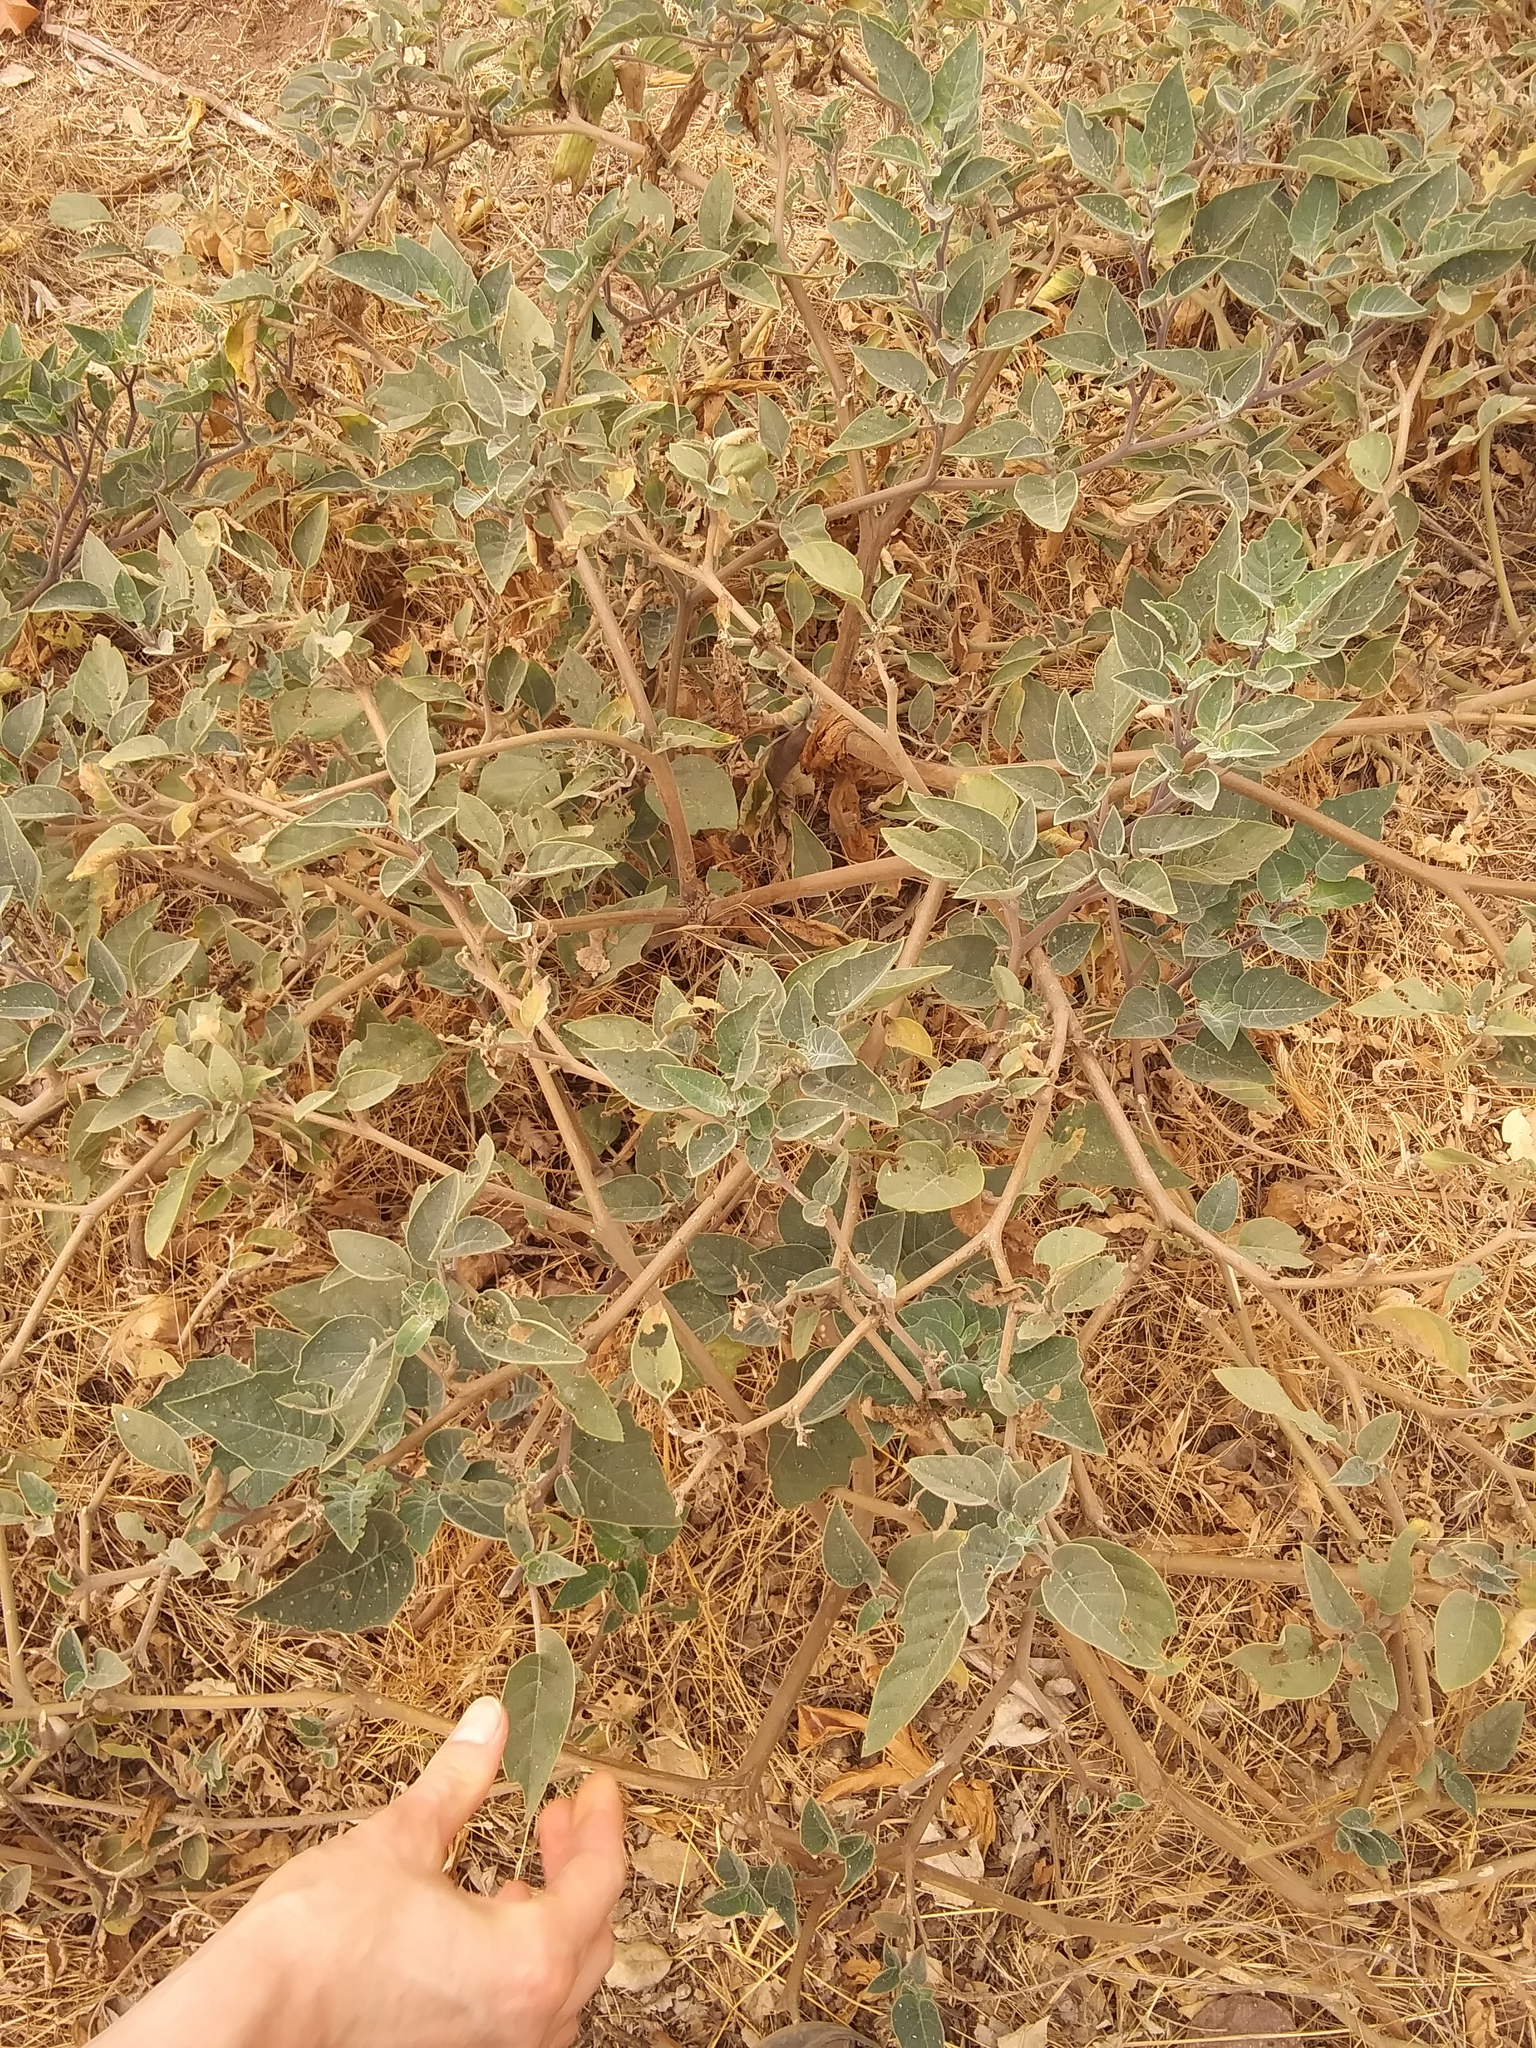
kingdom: Plantae
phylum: Tracheophyta
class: Magnoliopsida
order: Solanales
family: Solanaceae
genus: Datura
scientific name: Datura wrightii
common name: Sacred thorn-apple
